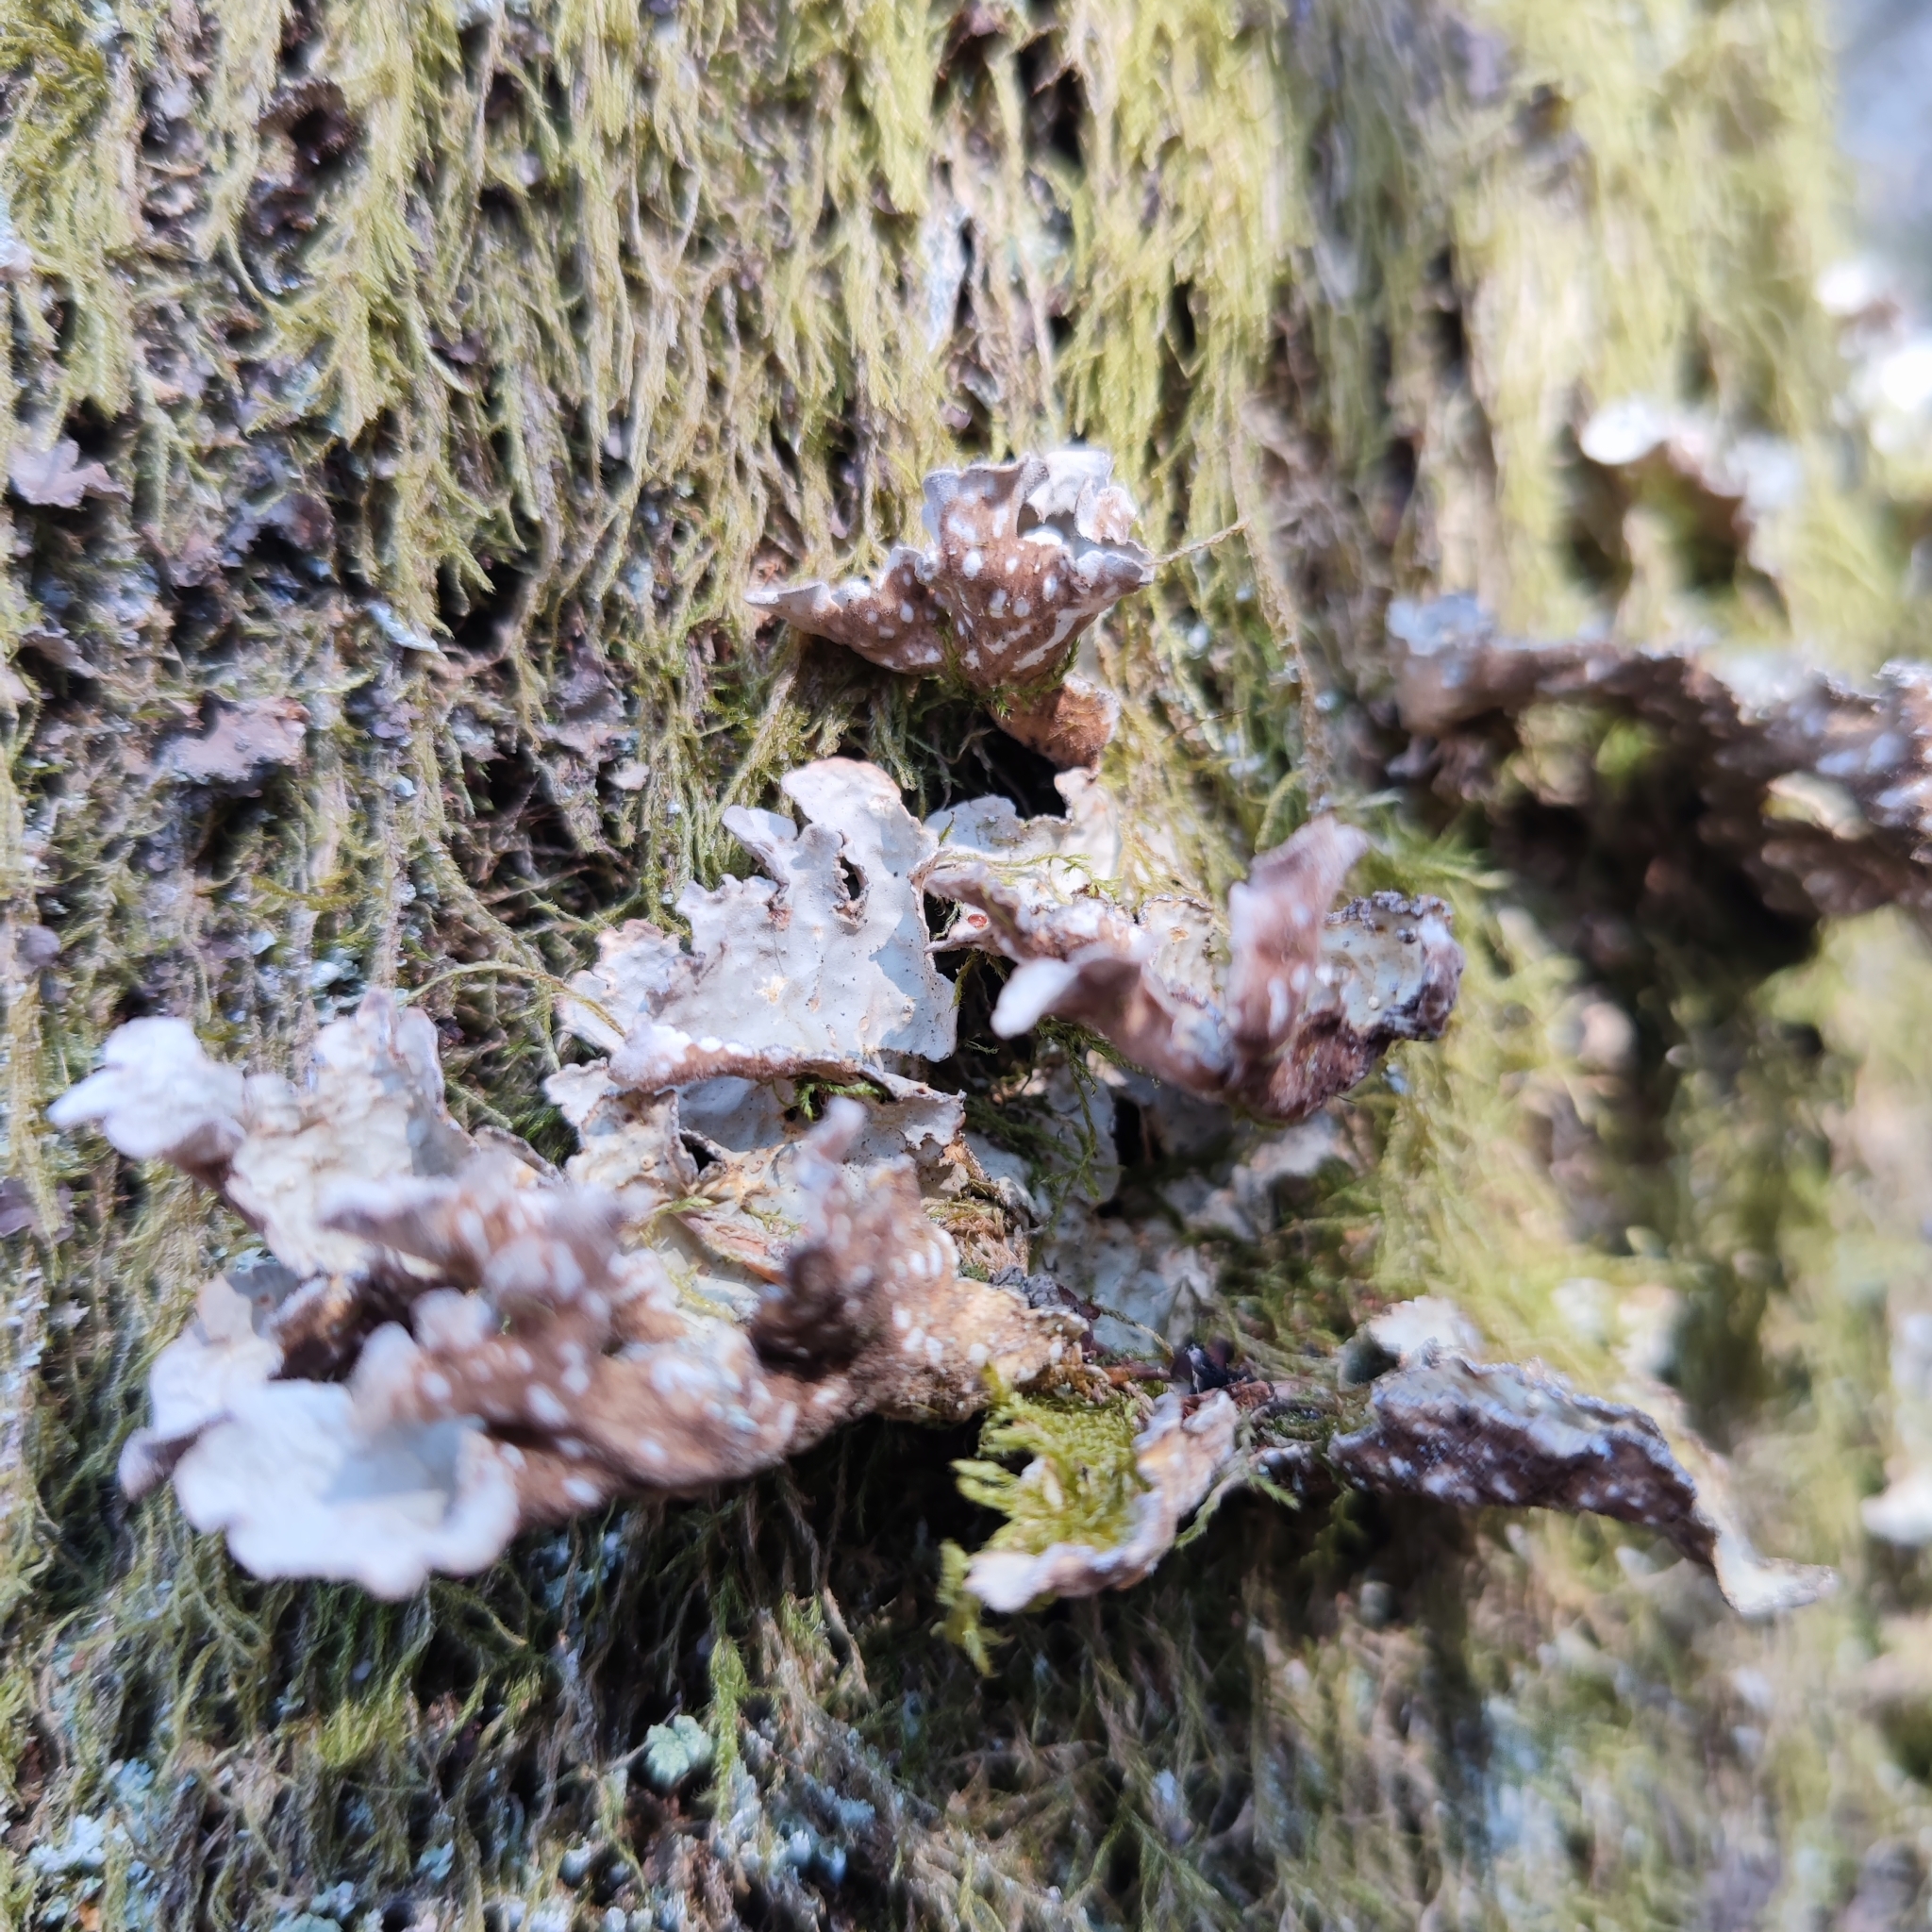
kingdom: Fungi
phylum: Ascomycota
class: Lecanoromycetes
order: Peltigerales
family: Lobariaceae
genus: Lobarina
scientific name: Lobarina scrobiculata
